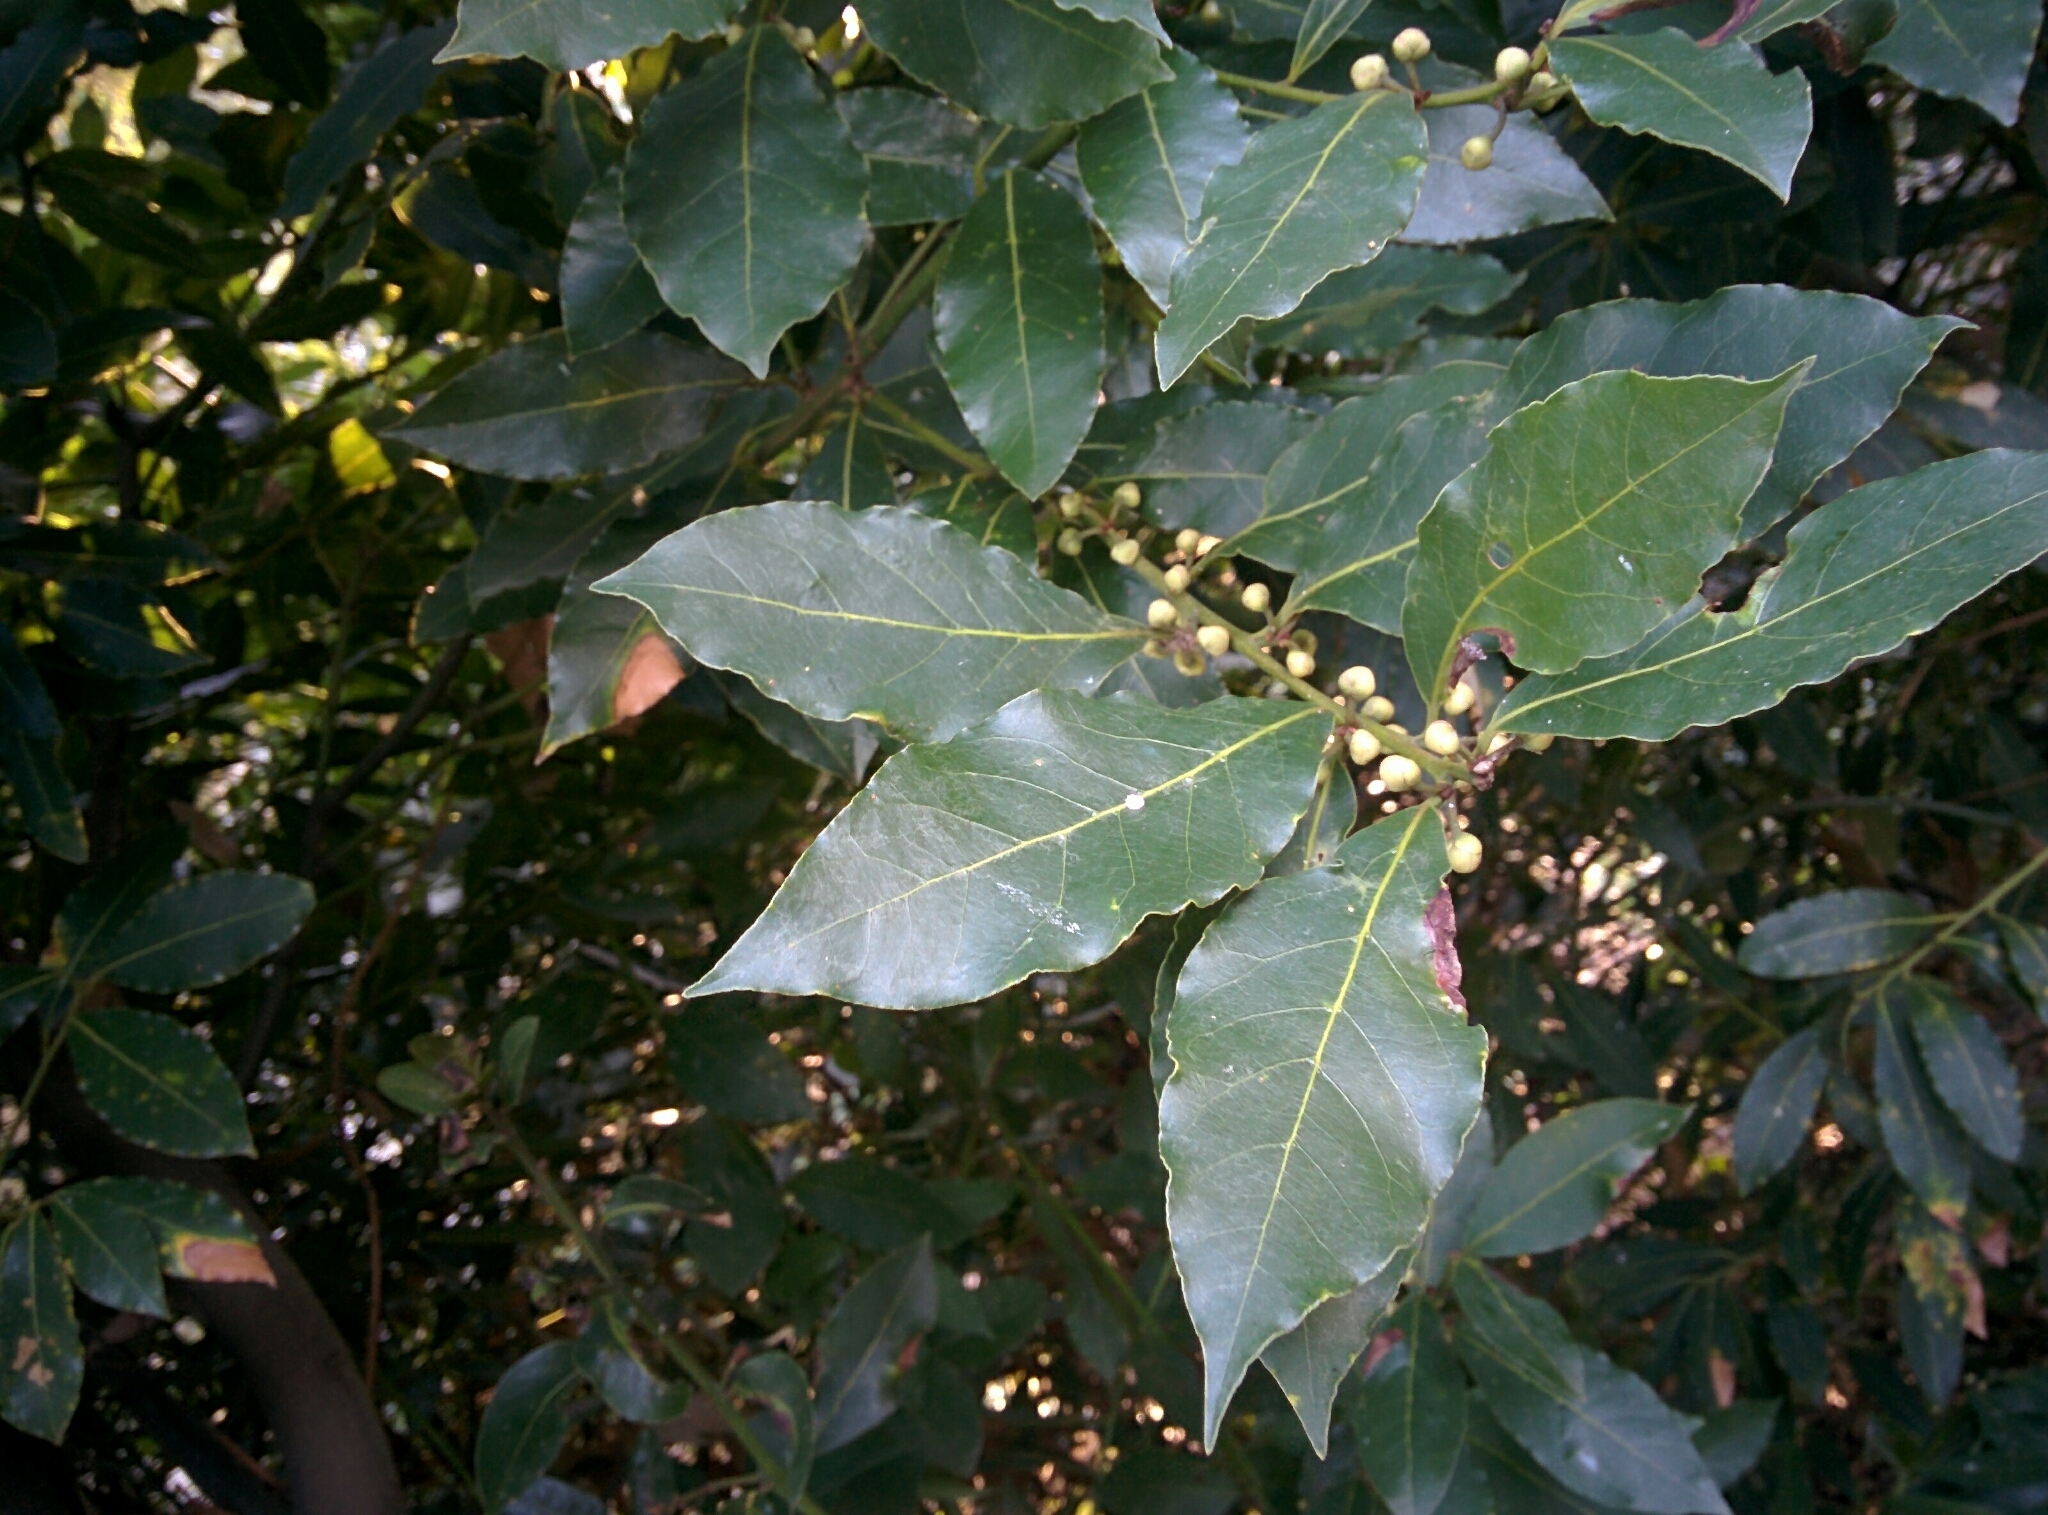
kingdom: Plantae
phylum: Tracheophyta
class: Magnoliopsida
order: Laurales
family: Lauraceae
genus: Laurus
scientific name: Laurus nobilis
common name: Bay
